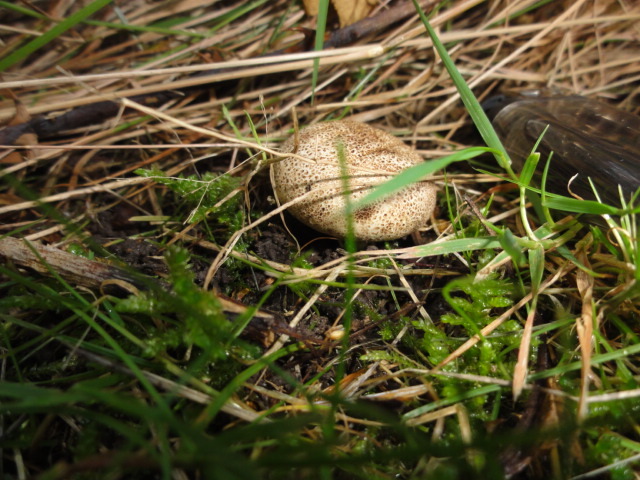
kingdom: Fungi
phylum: Basidiomycota
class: Agaricomycetes
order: Boletales
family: Sclerodermataceae
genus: Scleroderma
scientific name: Scleroderma citrinum
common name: Common earthball
